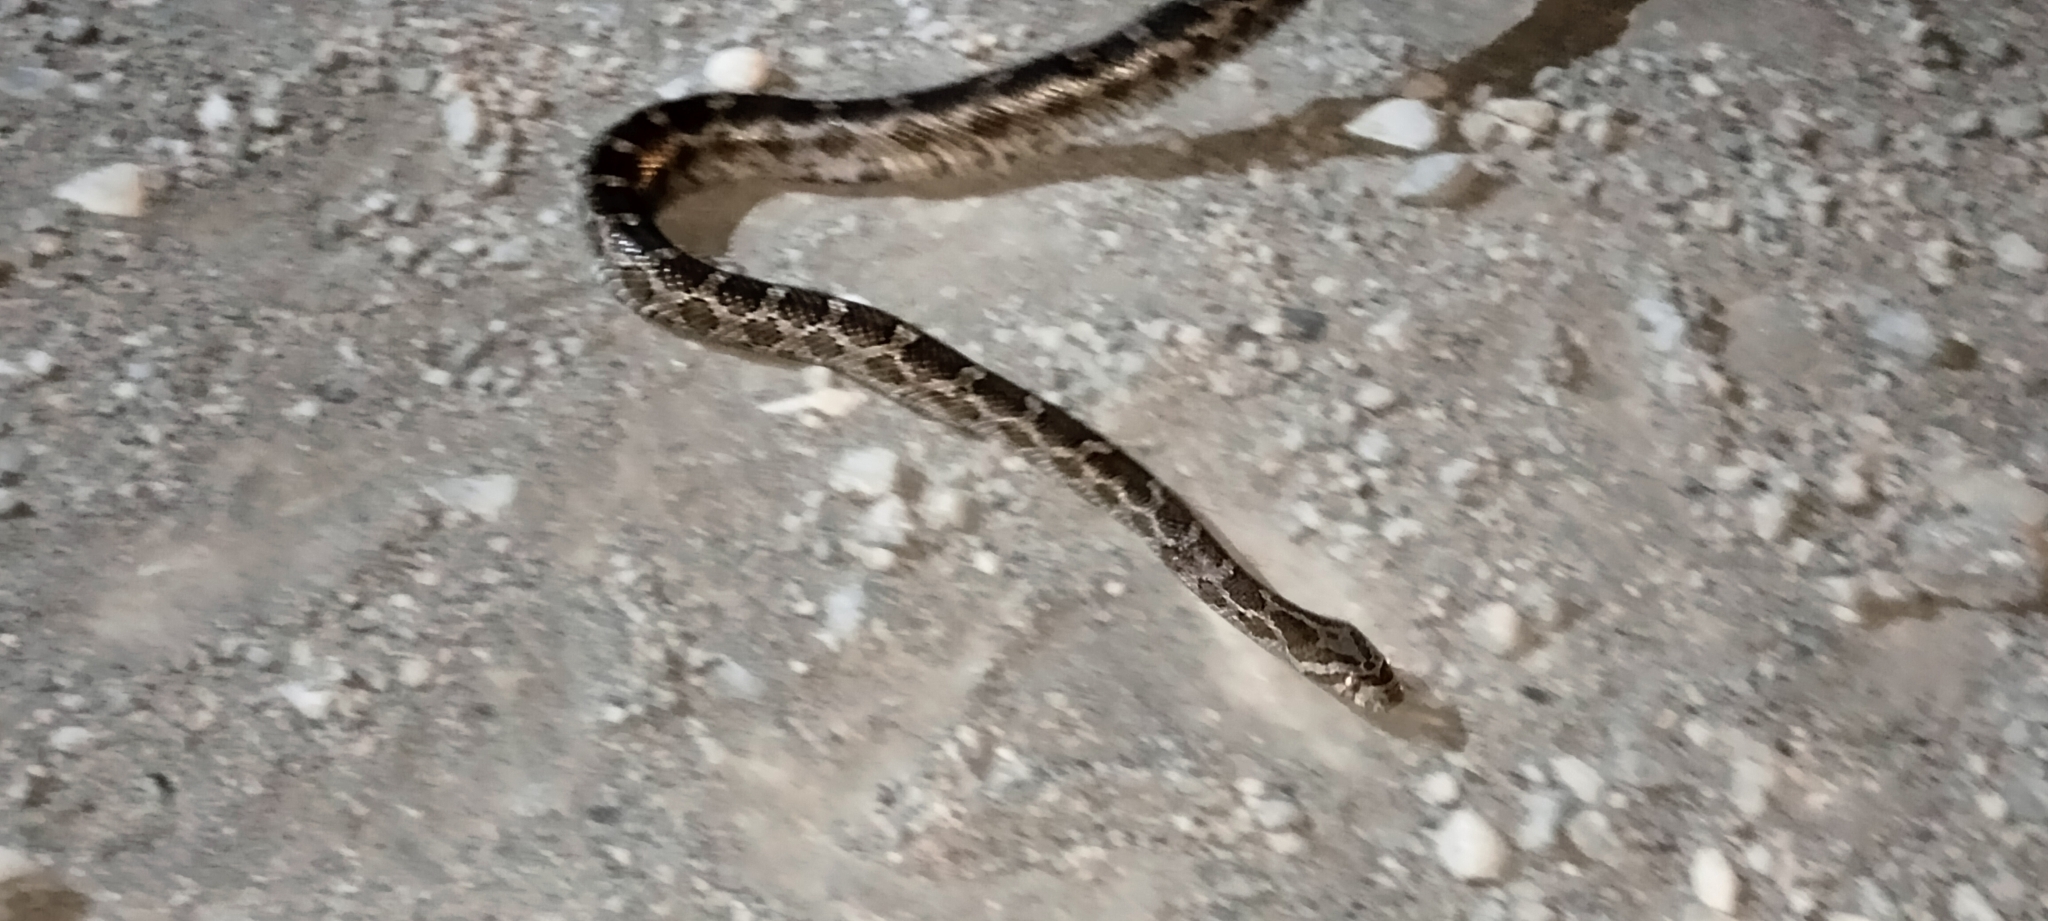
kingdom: Animalia
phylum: Chordata
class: Squamata
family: Colubridae
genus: Pantherophis
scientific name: Pantherophis emoryi
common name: Great plains rat snake
